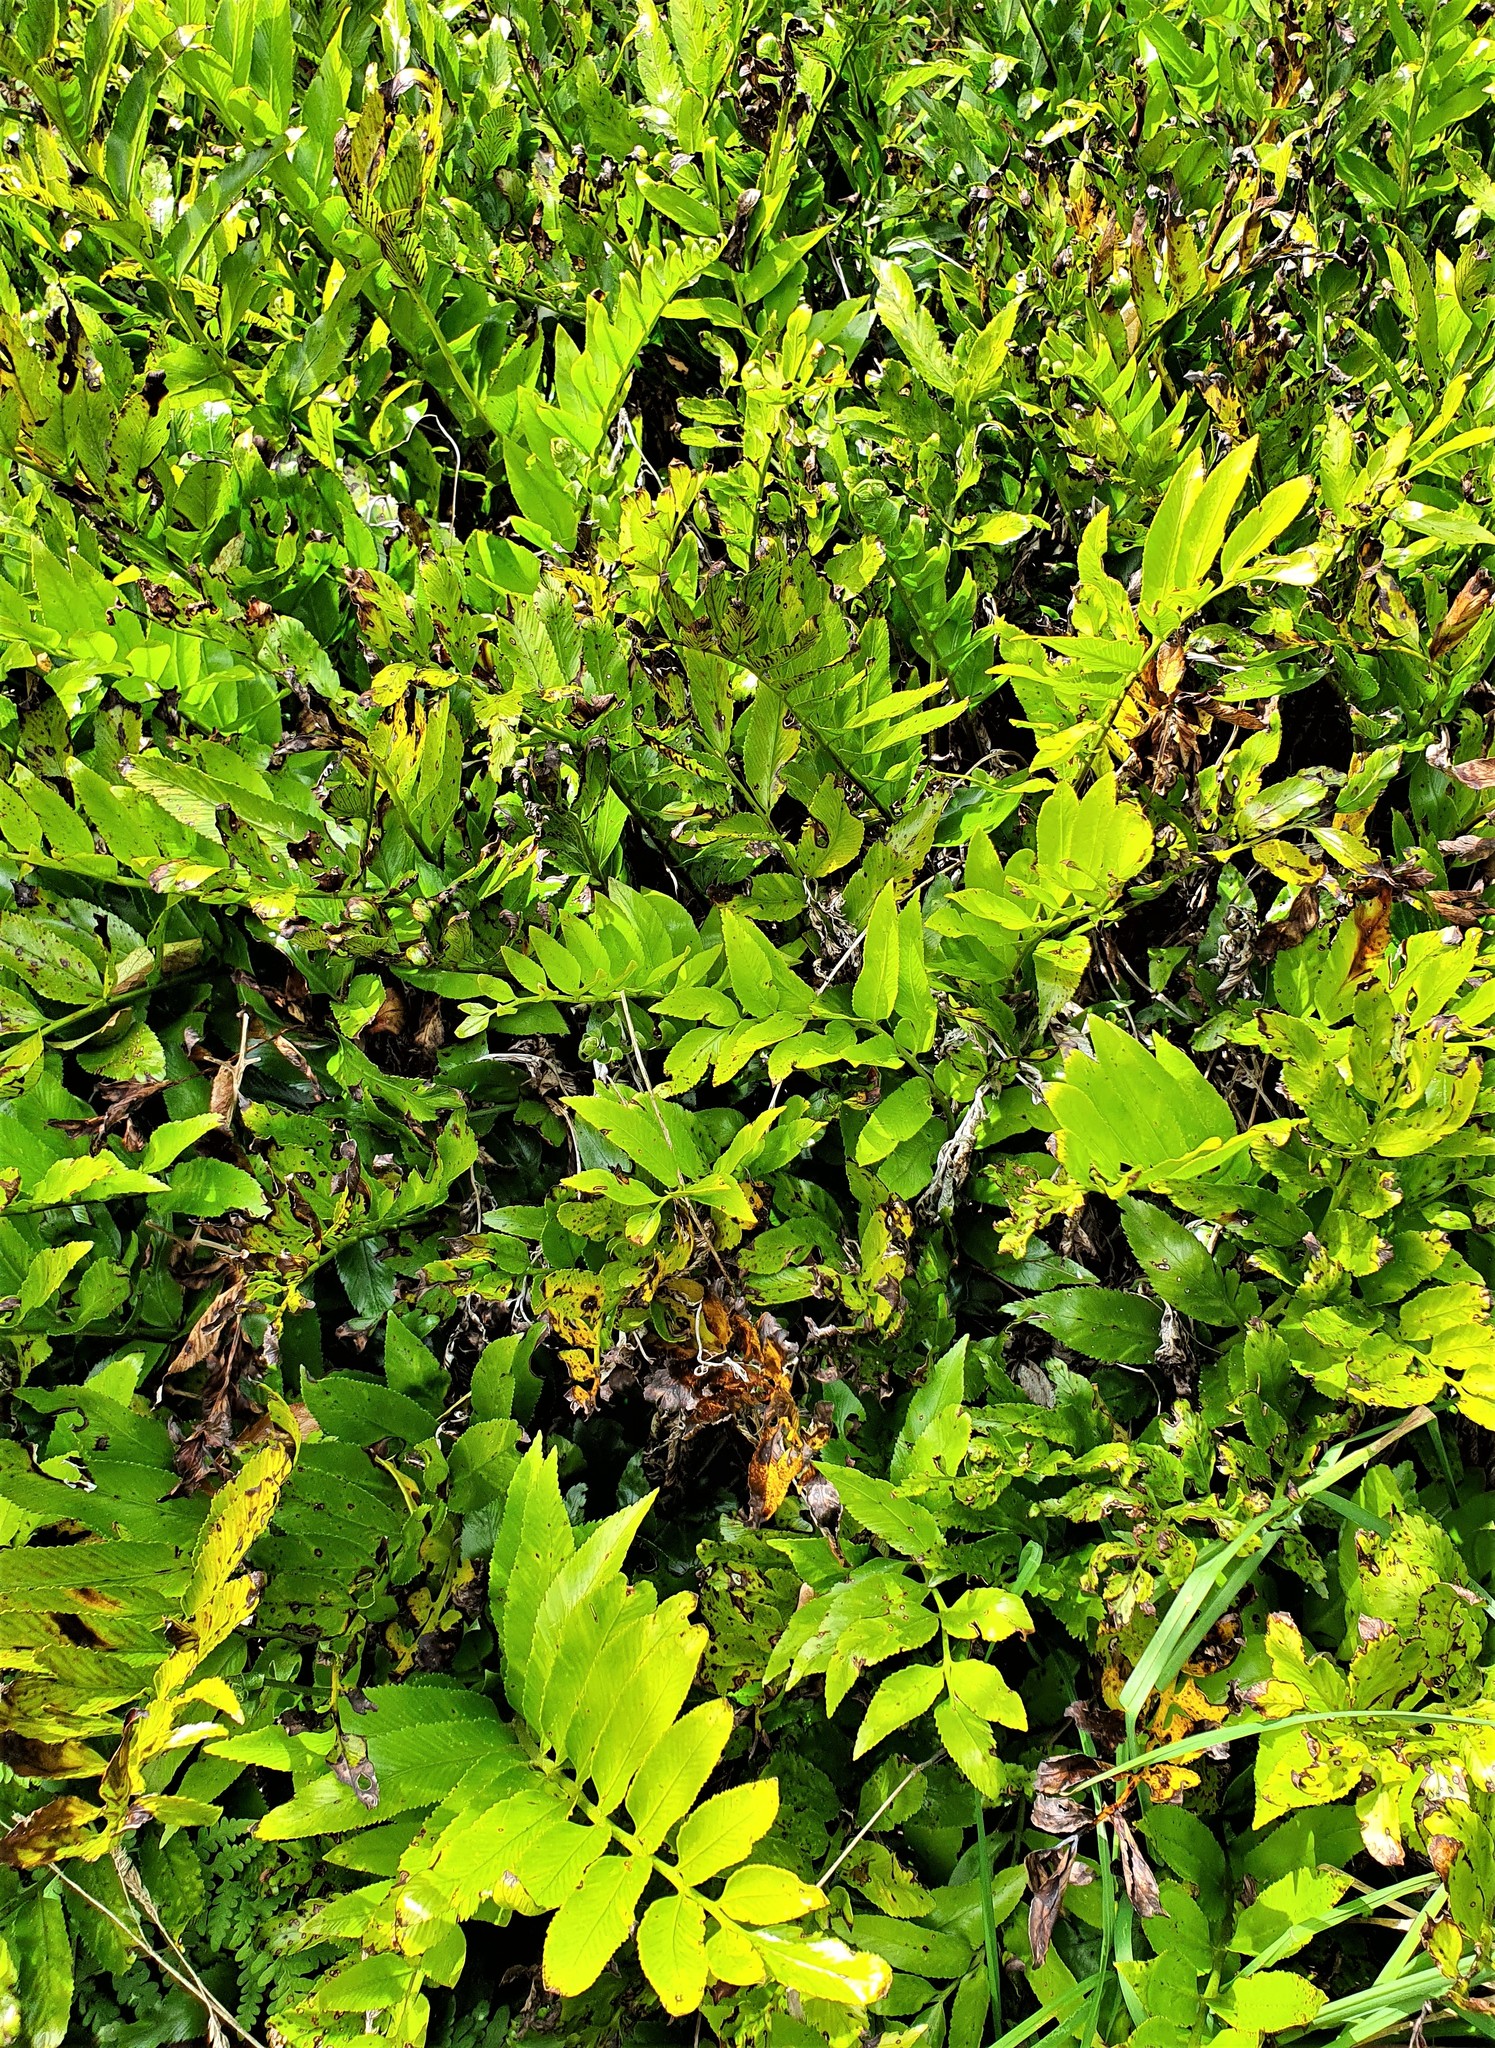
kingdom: Plantae
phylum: Tracheophyta
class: Polypodiopsida
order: Polypodiales
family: Aspleniaceae
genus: Asplenium
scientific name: Asplenium oblongifolium
